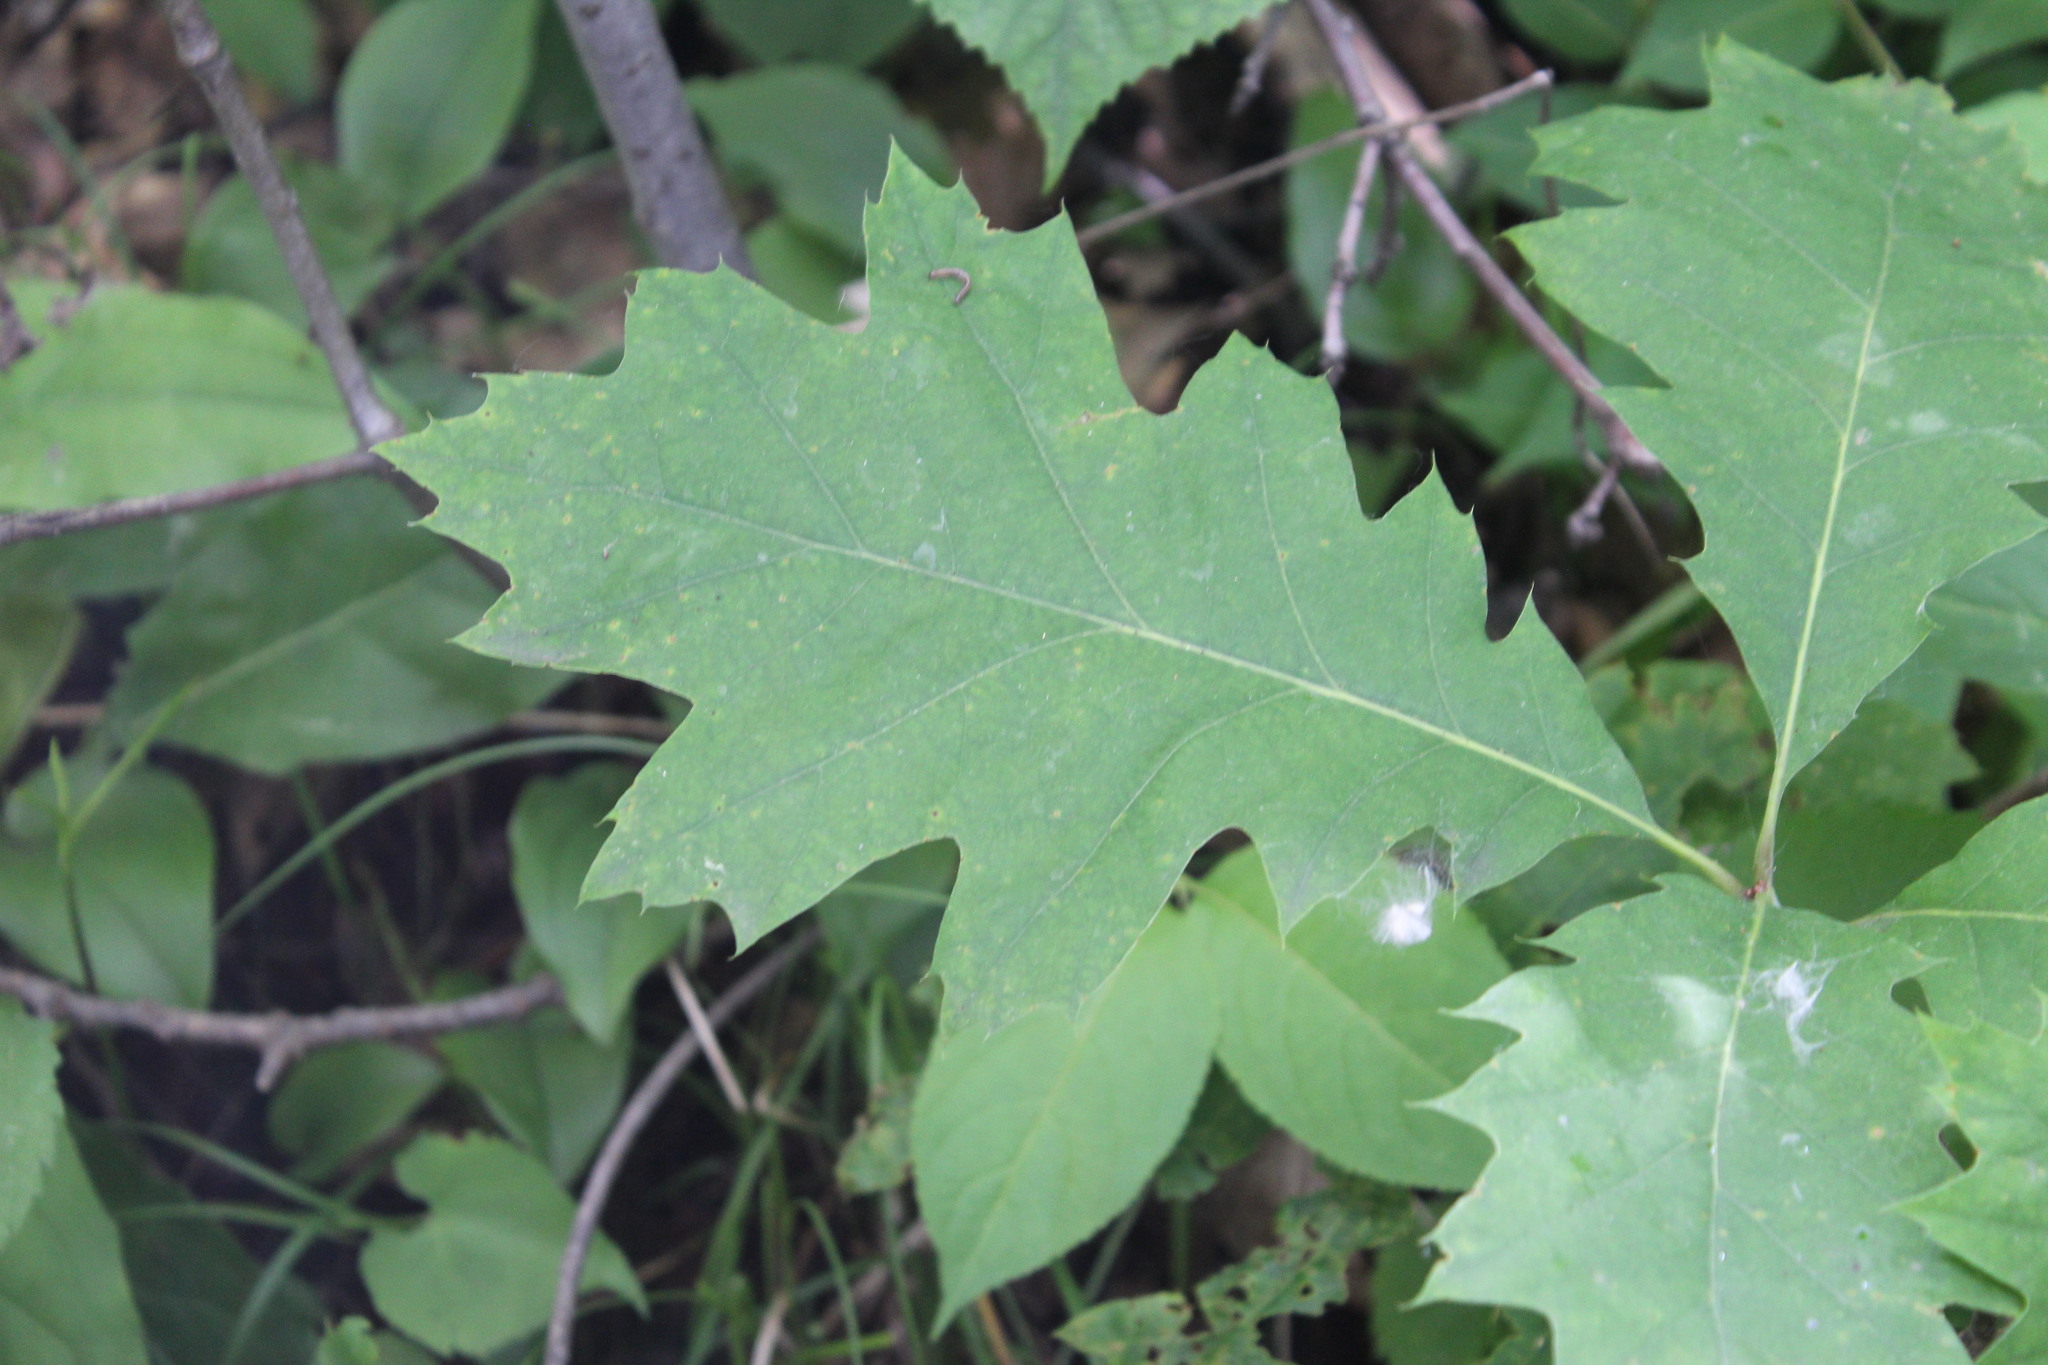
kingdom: Plantae
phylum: Tracheophyta
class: Magnoliopsida
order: Fagales
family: Fagaceae
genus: Quercus
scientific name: Quercus rubra
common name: Red oak
